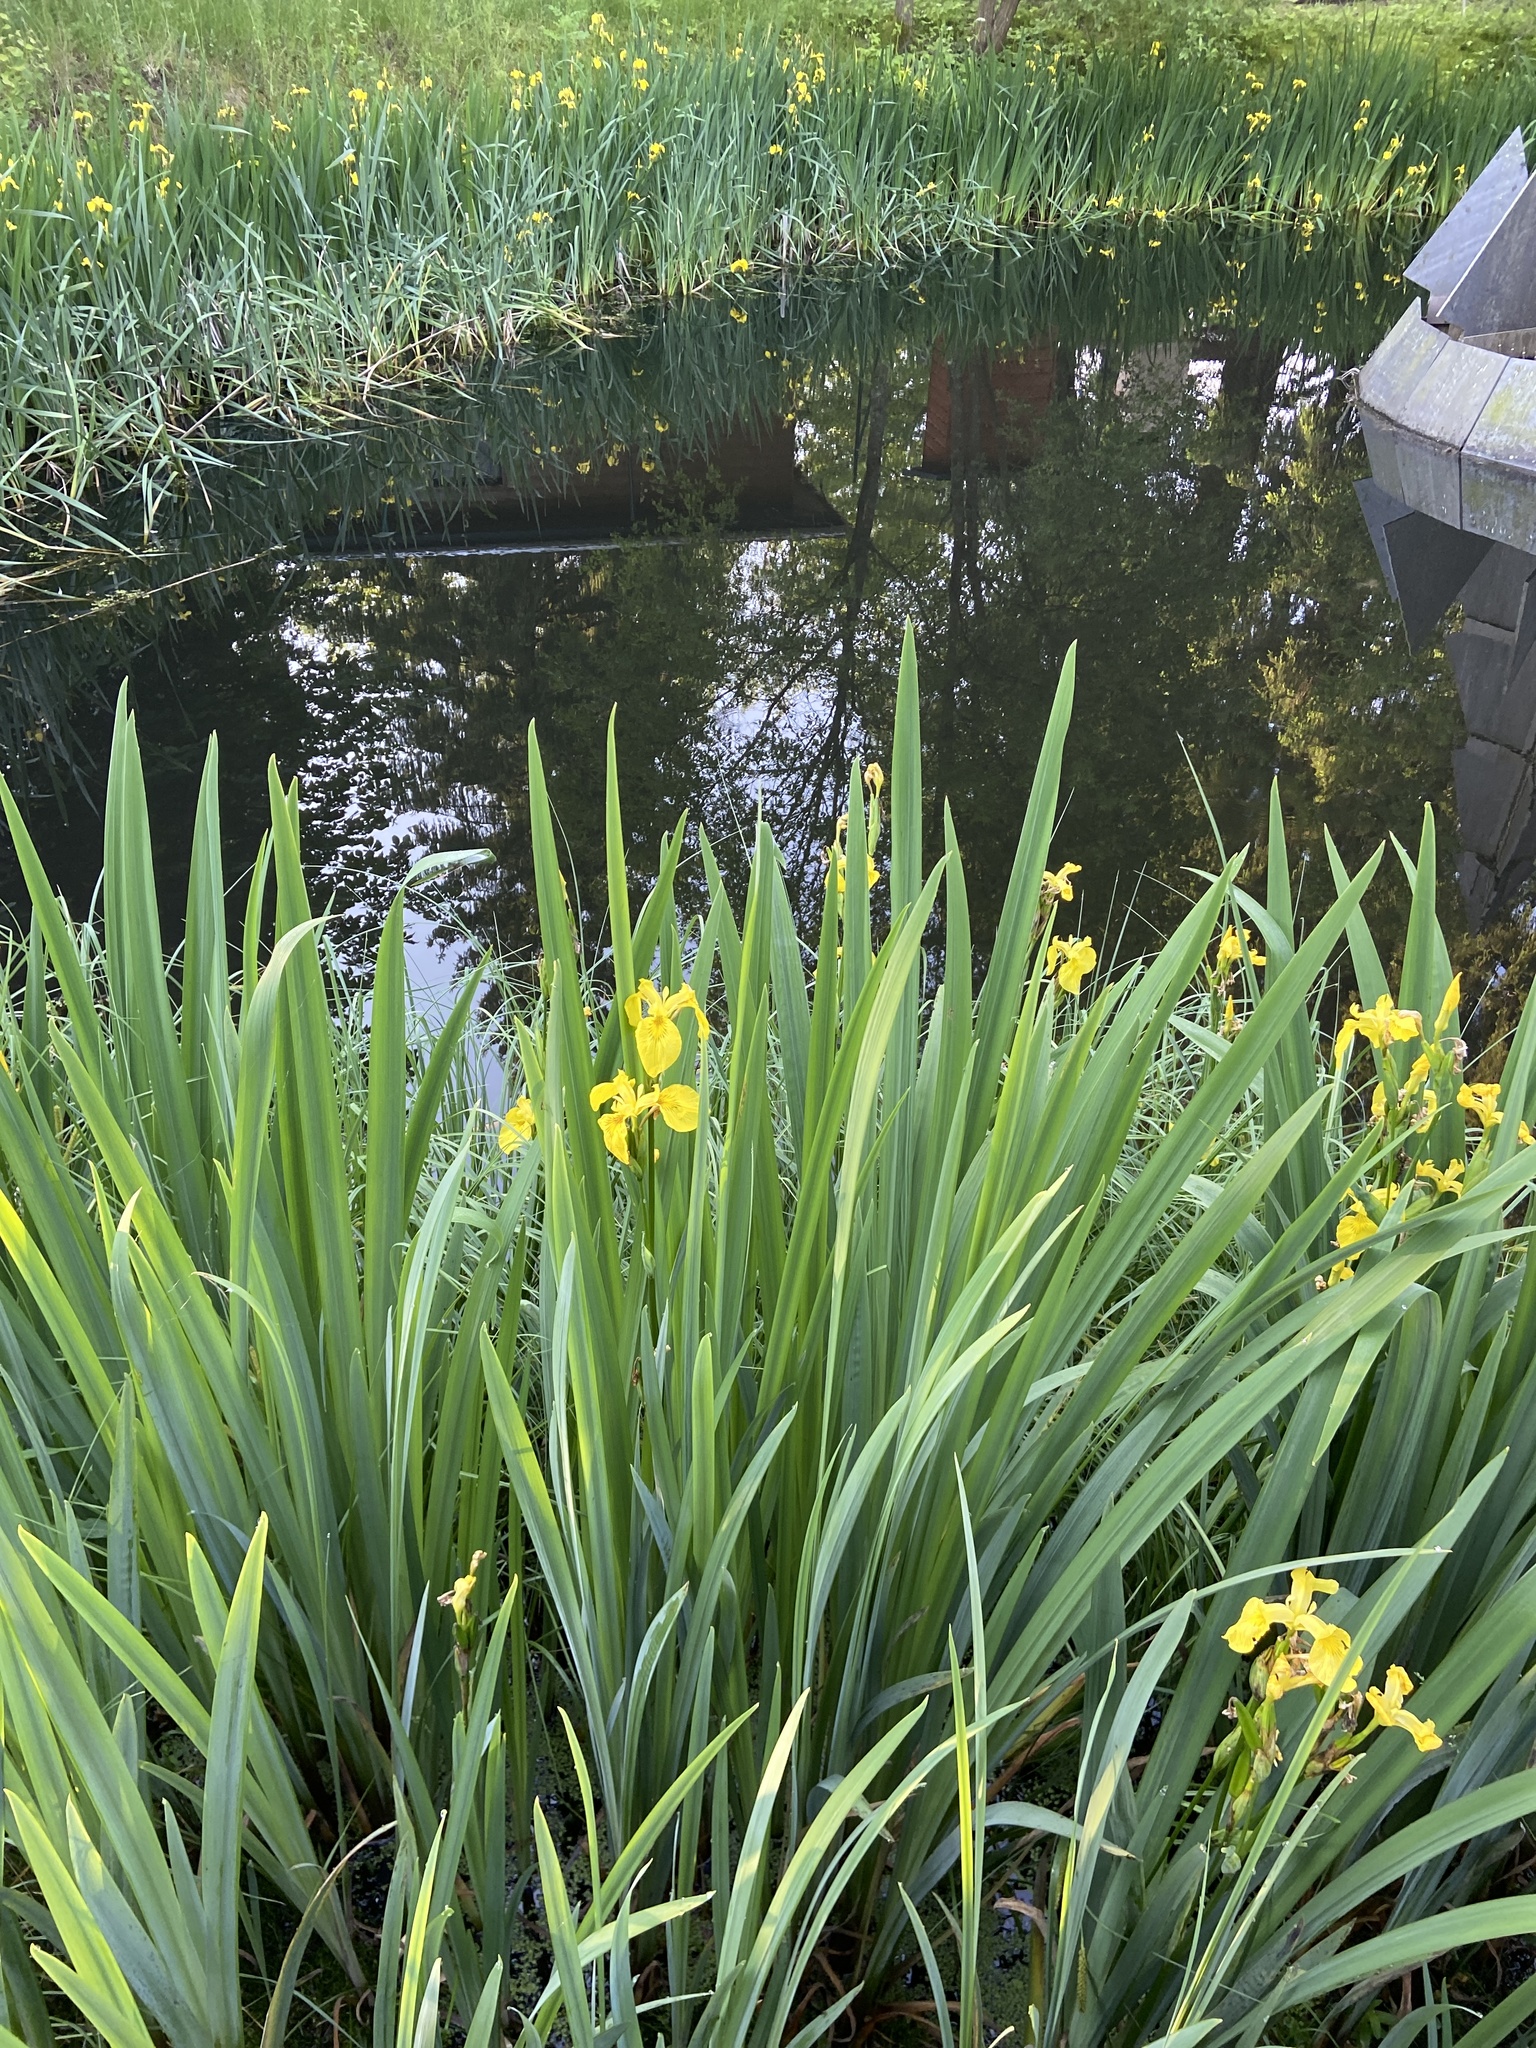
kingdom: Plantae
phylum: Tracheophyta
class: Liliopsida
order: Asparagales
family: Iridaceae
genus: Iris
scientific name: Iris pseudacorus
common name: Yellow flag
